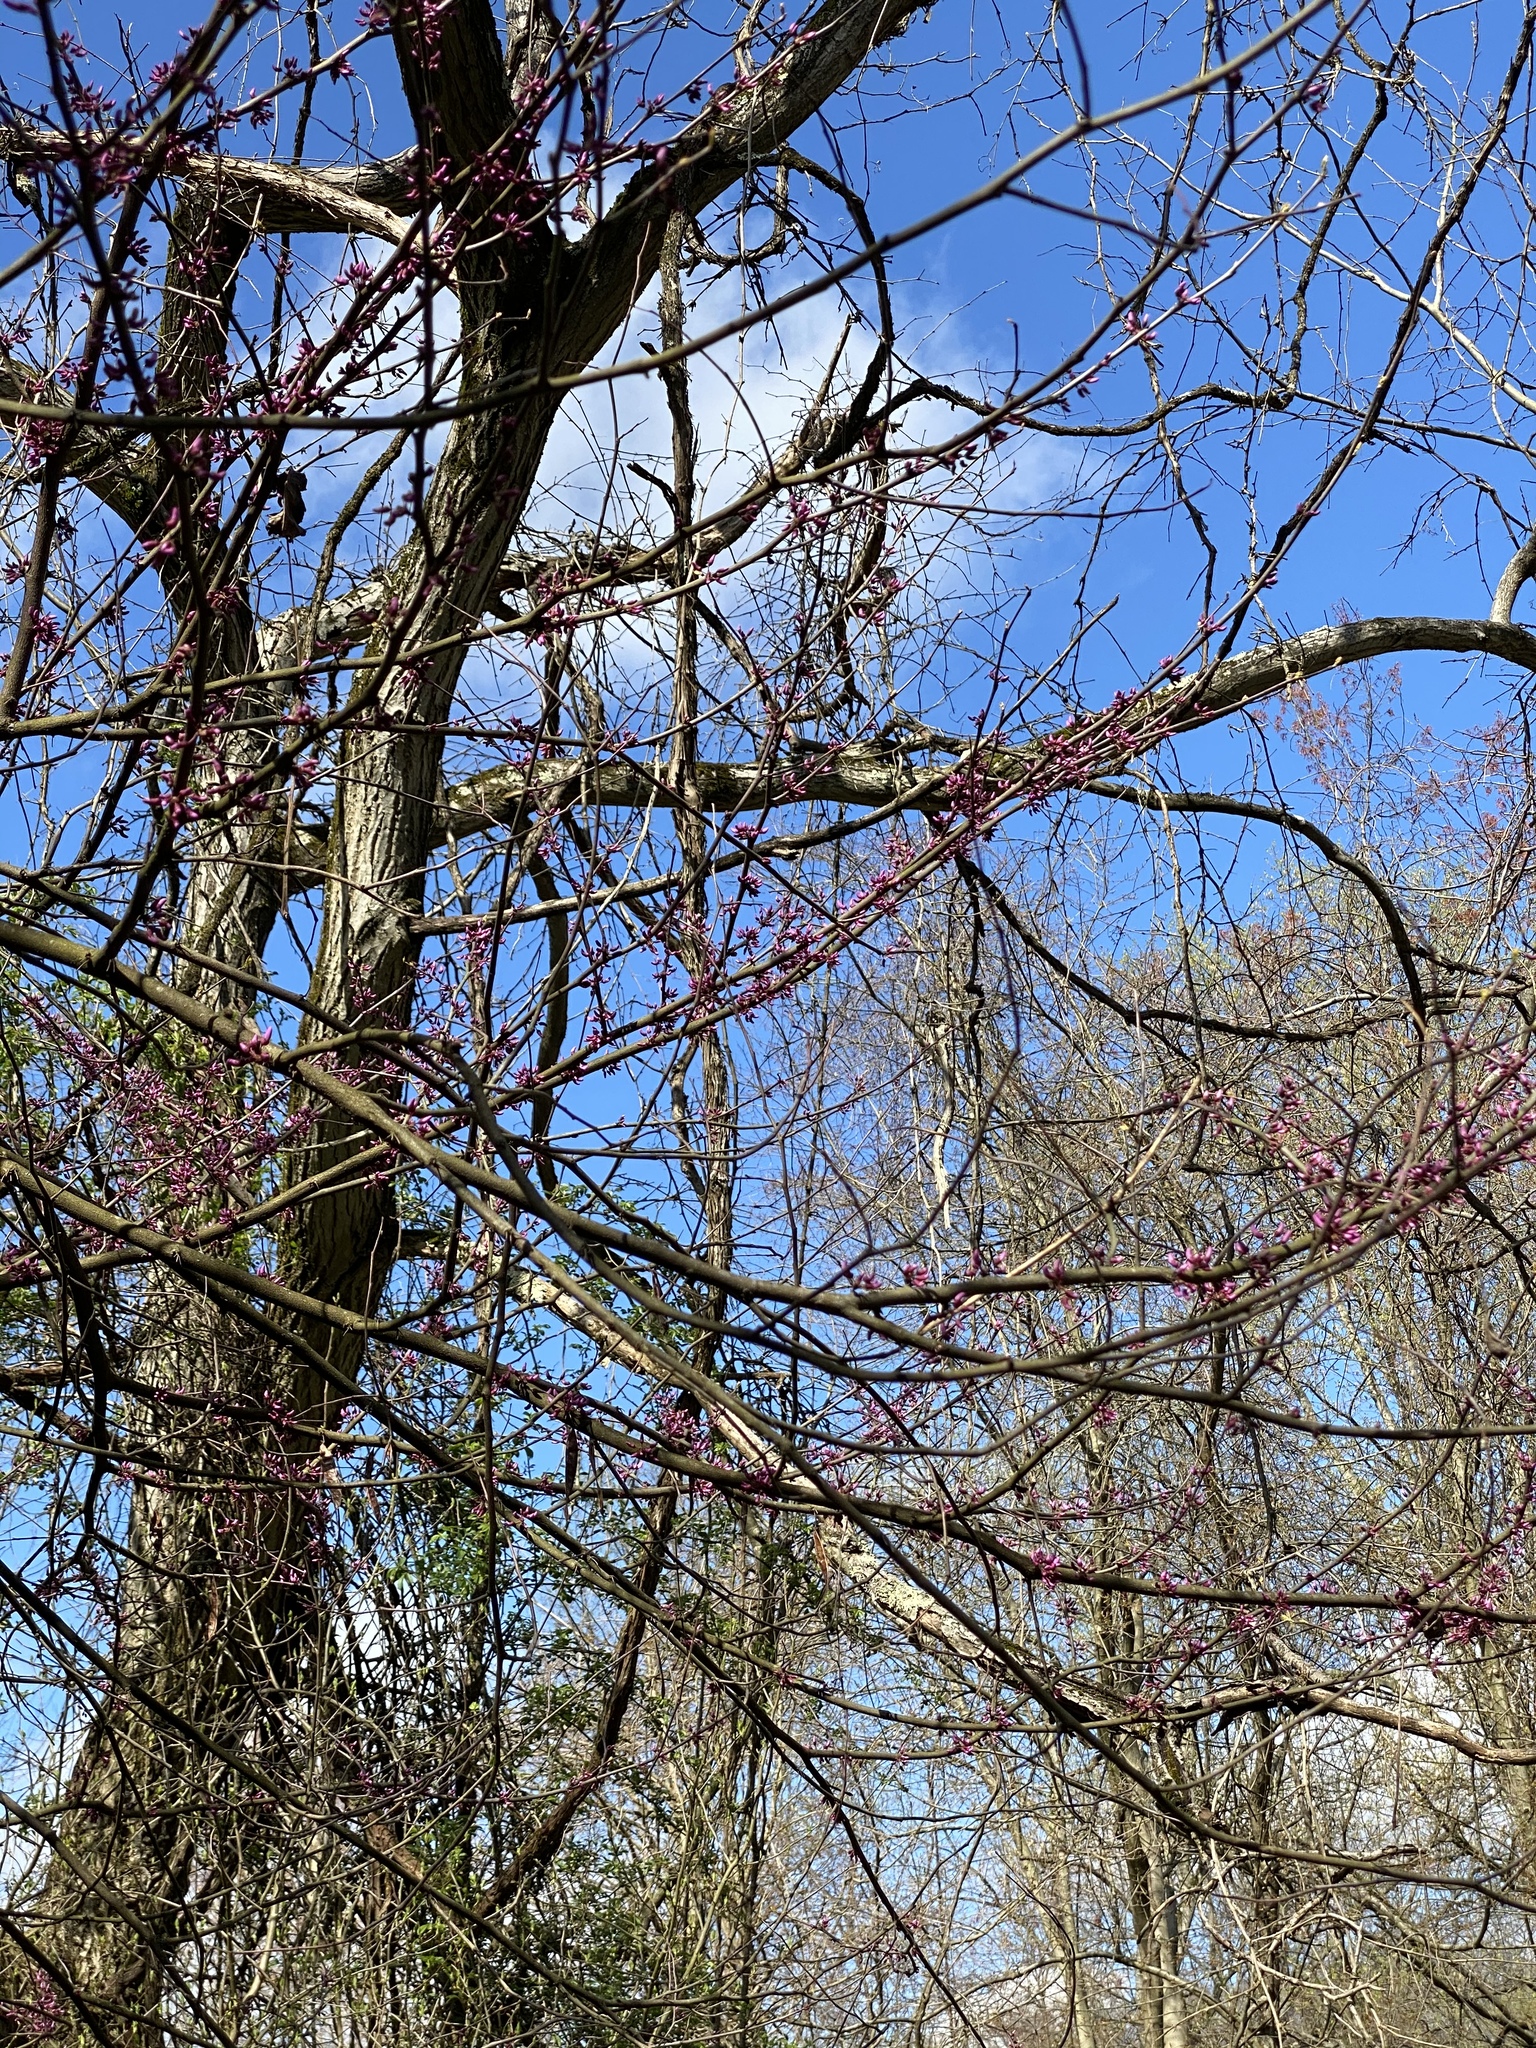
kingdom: Plantae
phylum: Tracheophyta
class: Magnoliopsida
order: Fabales
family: Fabaceae
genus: Cercis
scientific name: Cercis canadensis
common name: Eastern redbud
